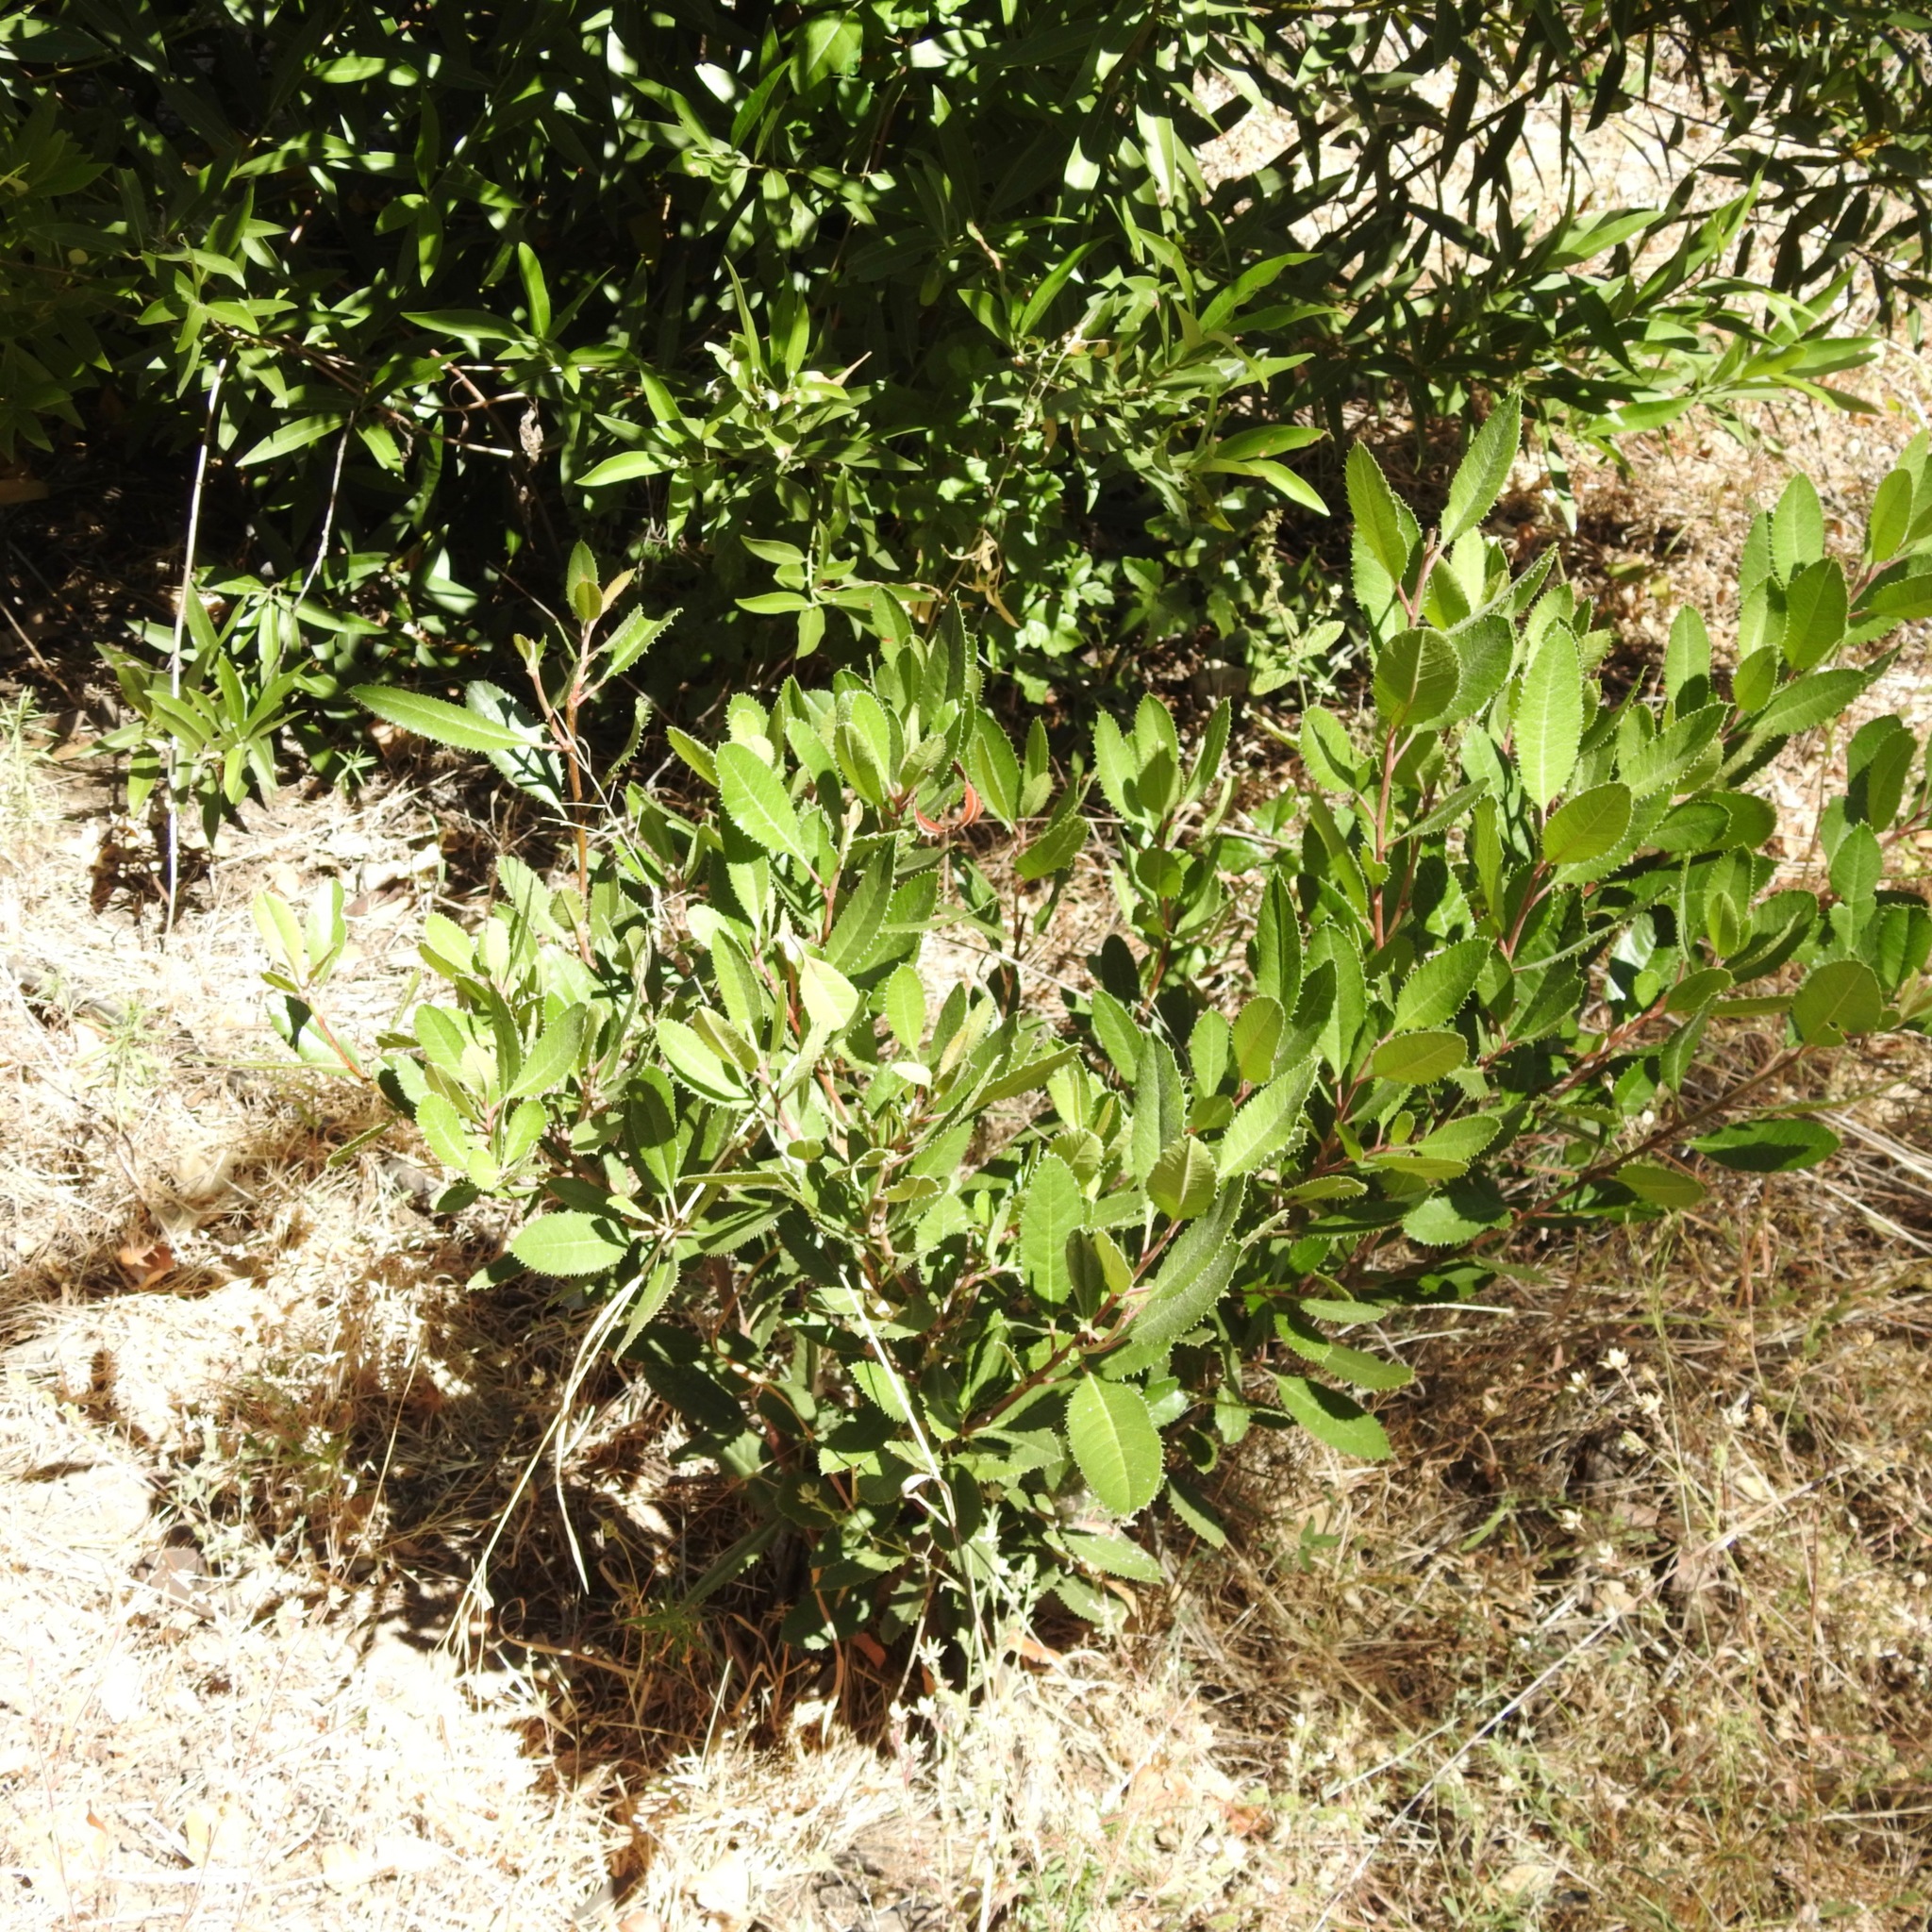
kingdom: Plantae
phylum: Tracheophyta
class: Magnoliopsida
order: Rosales
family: Rosaceae
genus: Heteromeles
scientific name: Heteromeles arbutifolia
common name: California-holly
